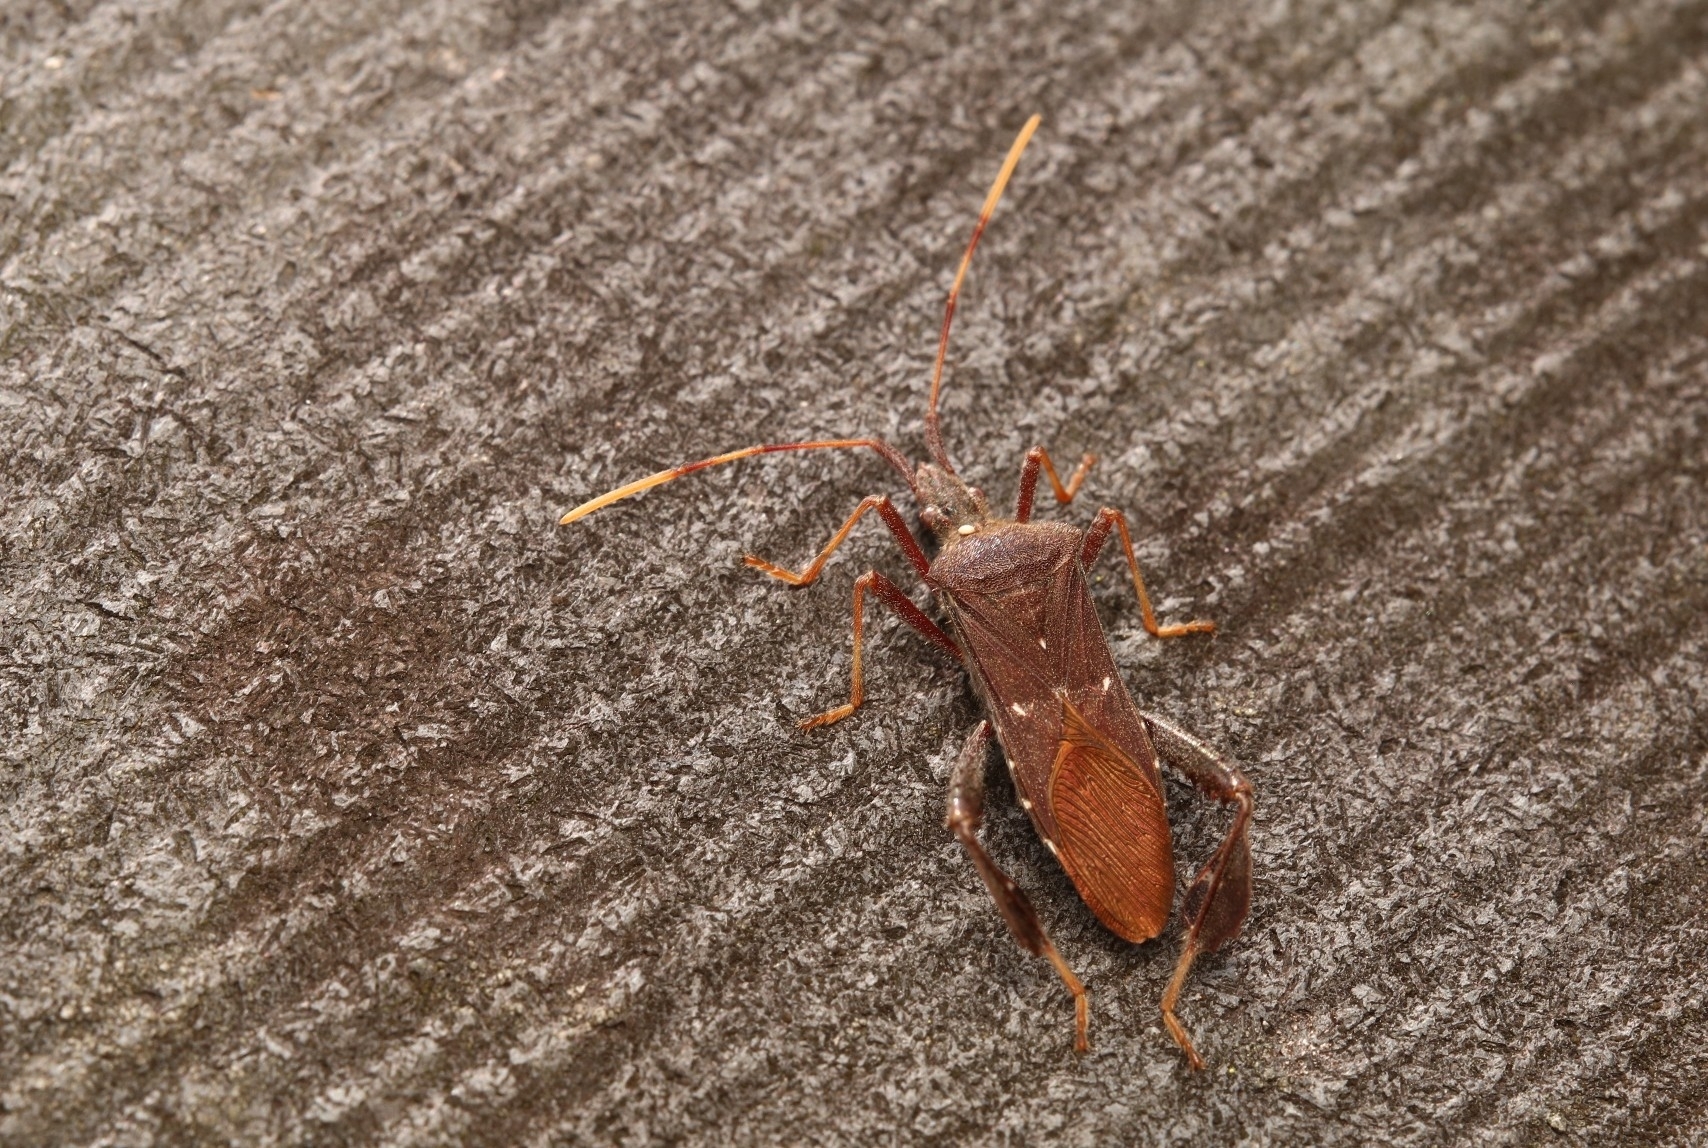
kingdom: Animalia
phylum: Arthropoda
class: Insecta
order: Hemiptera
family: Coreidae
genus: Leptoglossus
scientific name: Leptoglossus oppositus
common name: Northern leaf-footed bug
